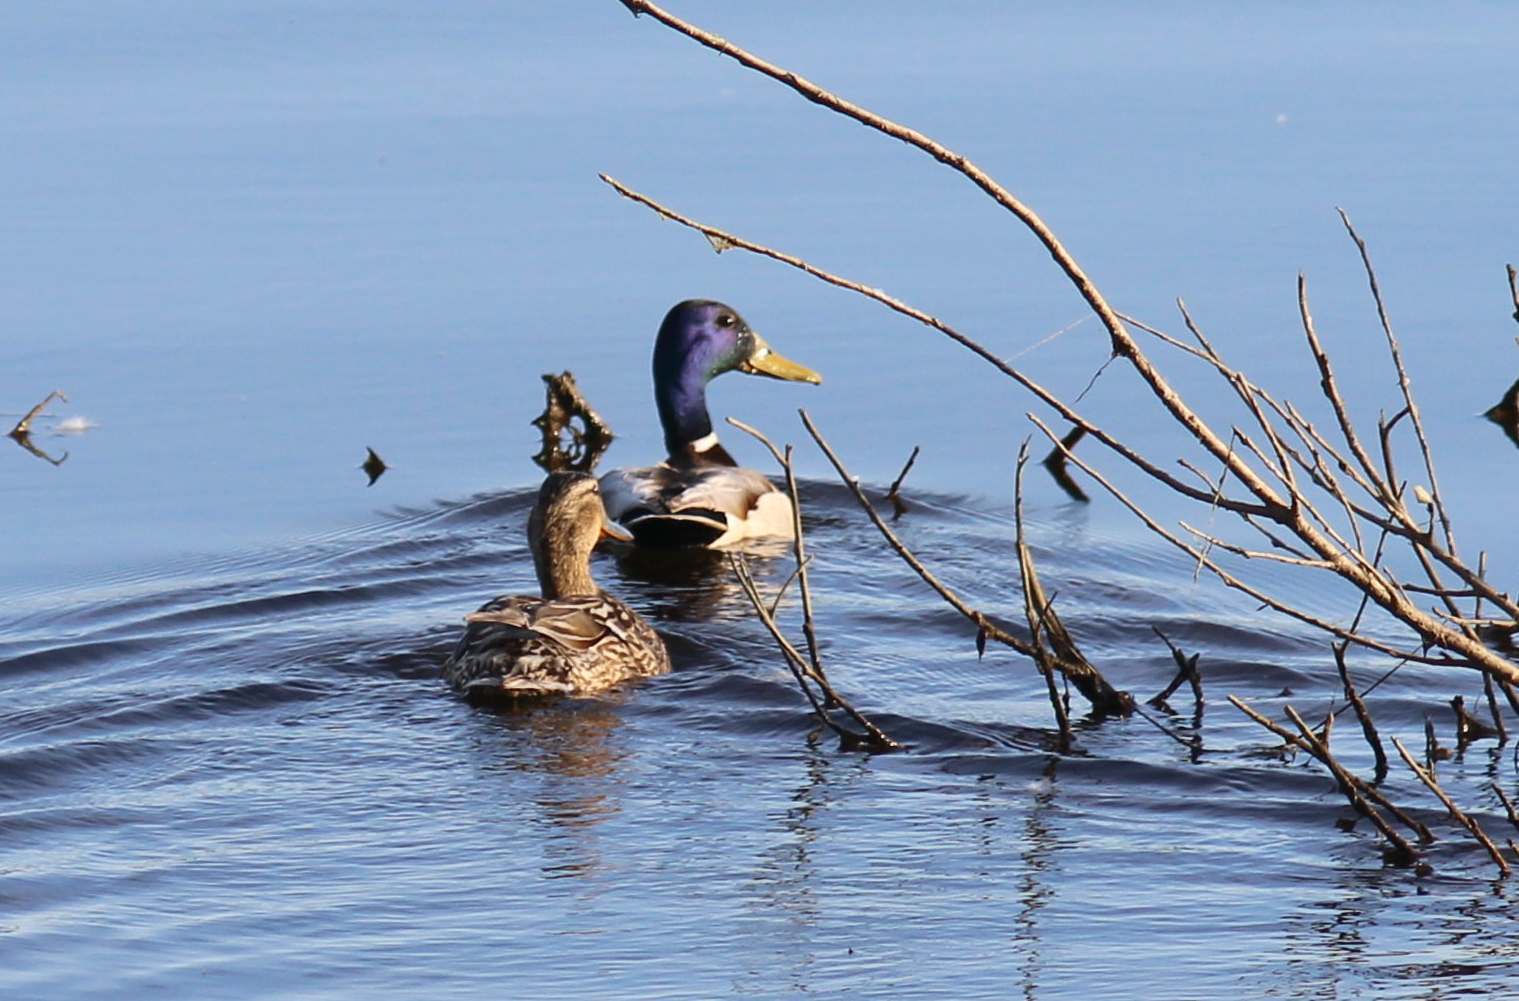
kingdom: Animalia
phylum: Chordata
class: Aves
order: Anseriformes
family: Anatidae
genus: Anas
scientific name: Anas platyrhynchos
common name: Mallard
